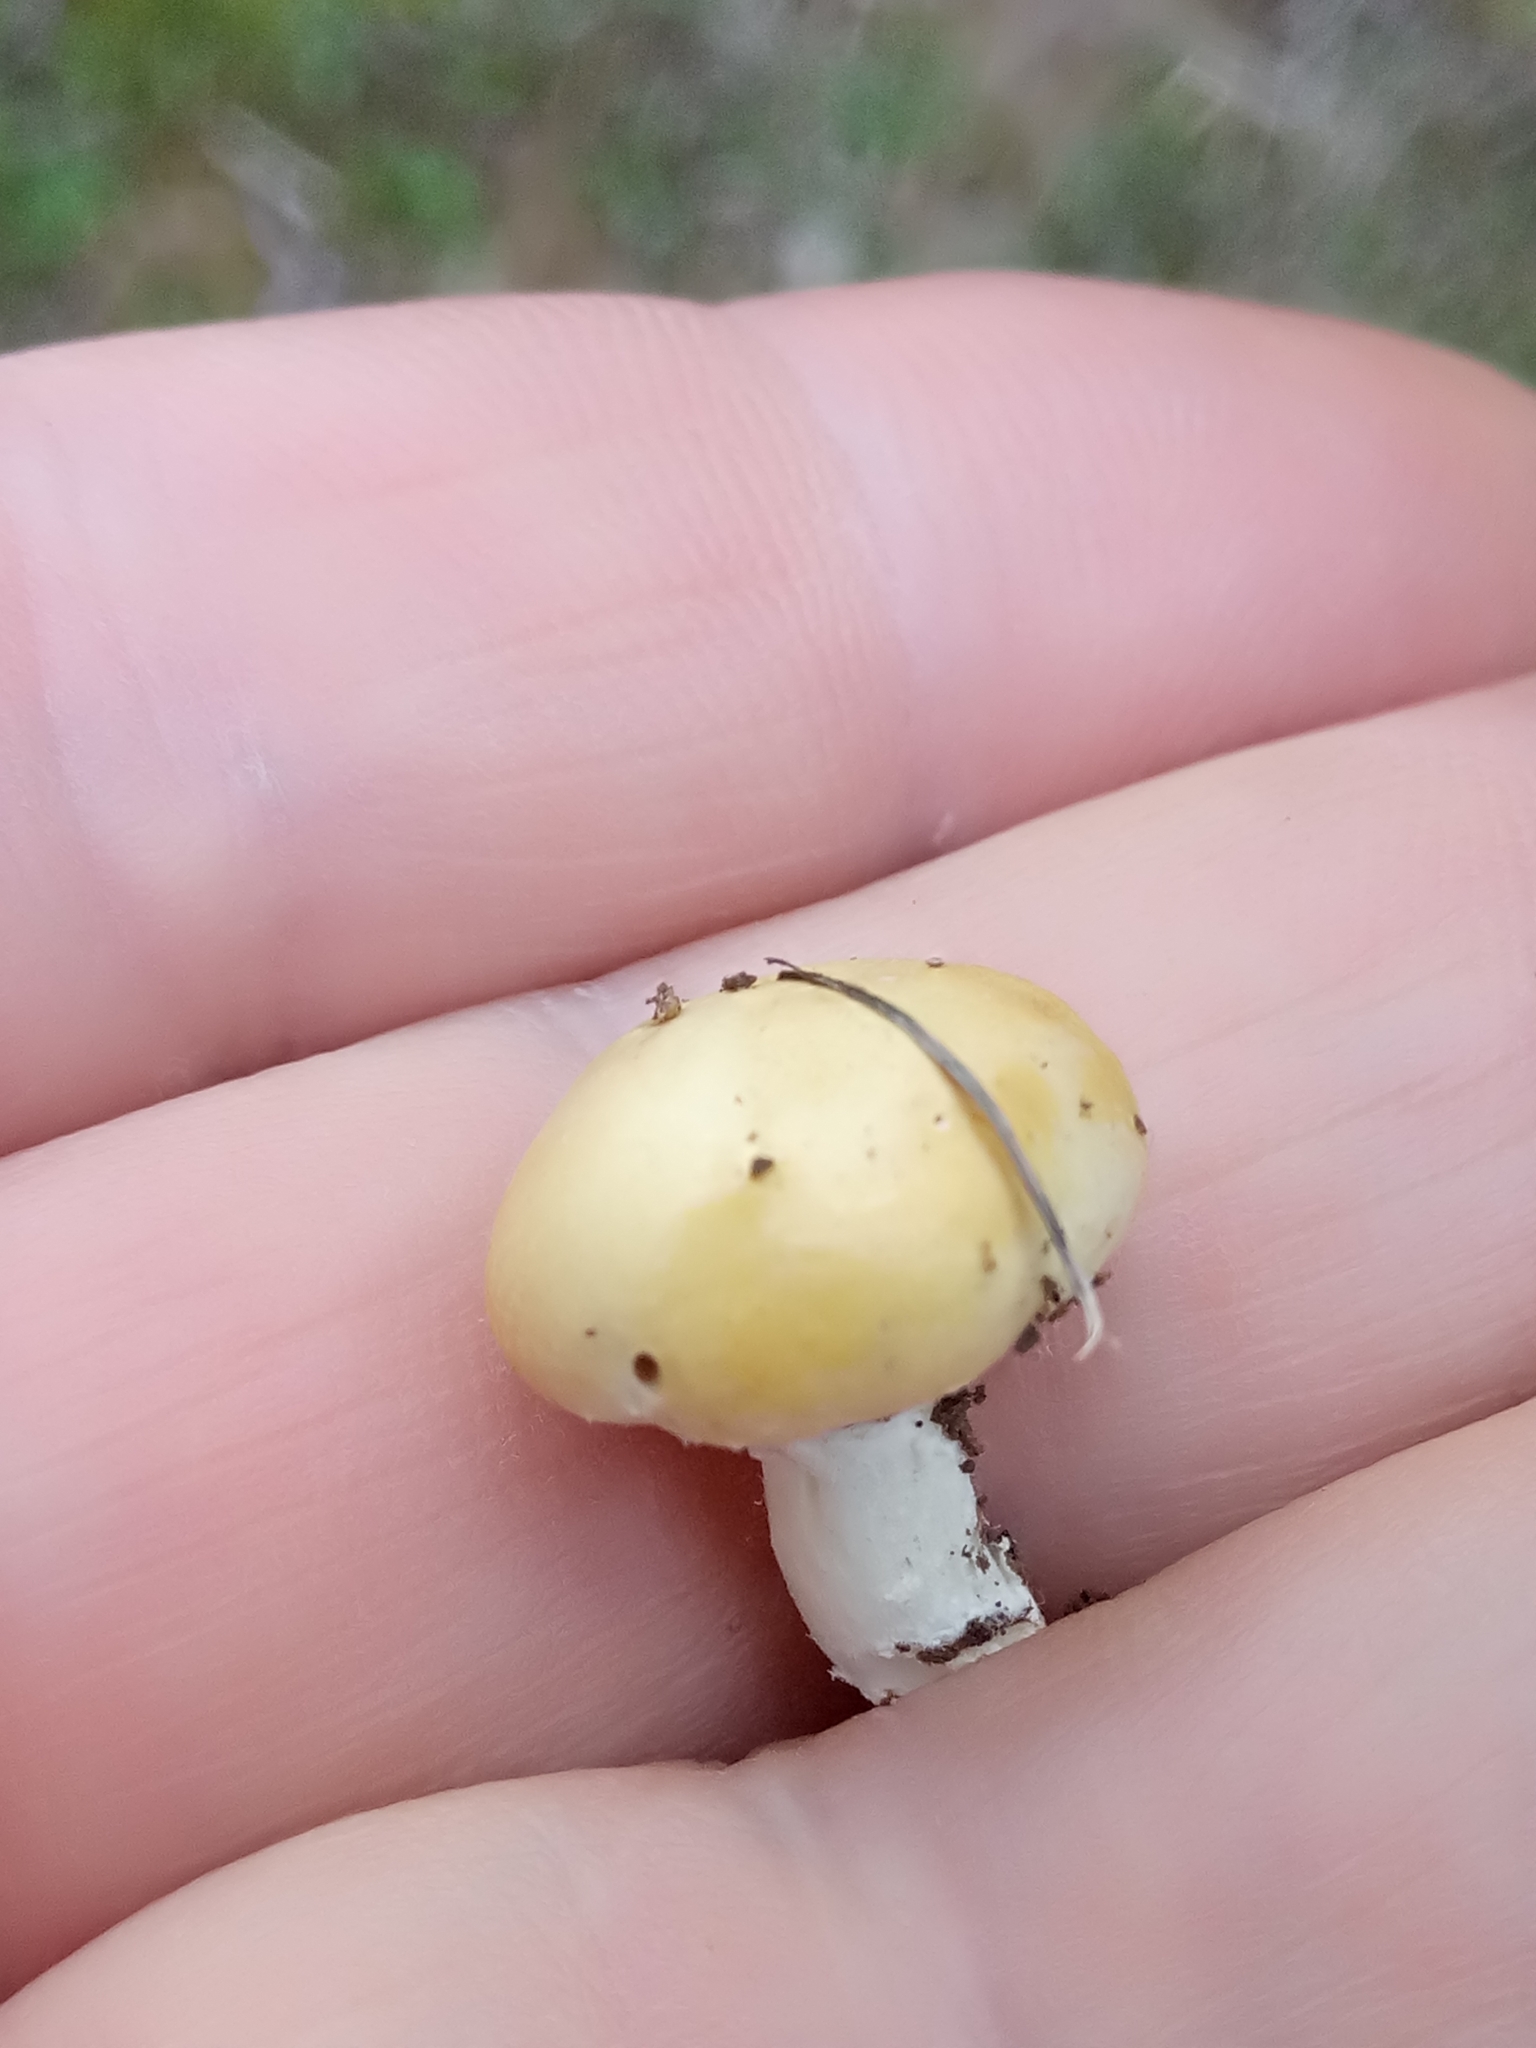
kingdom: Fungi
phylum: Basidiomycota
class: Agaricomycetes
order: Agaricales
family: Hymenogastraceae
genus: Psilocybe
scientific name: Psilocybe coronilla
